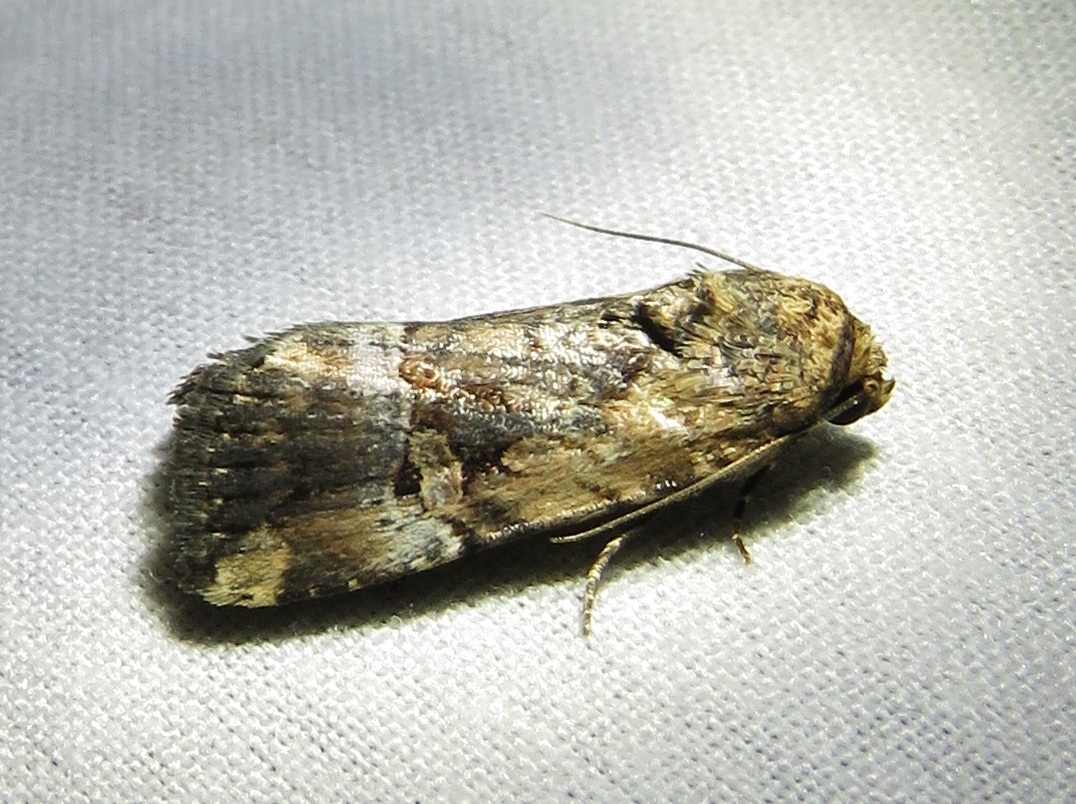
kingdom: Animalia
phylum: Arthropoda
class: Insecta
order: Lepidoptera
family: Noctuidae
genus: Elaphria
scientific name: Elaphria chalcedonia
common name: Chalcedony midget
